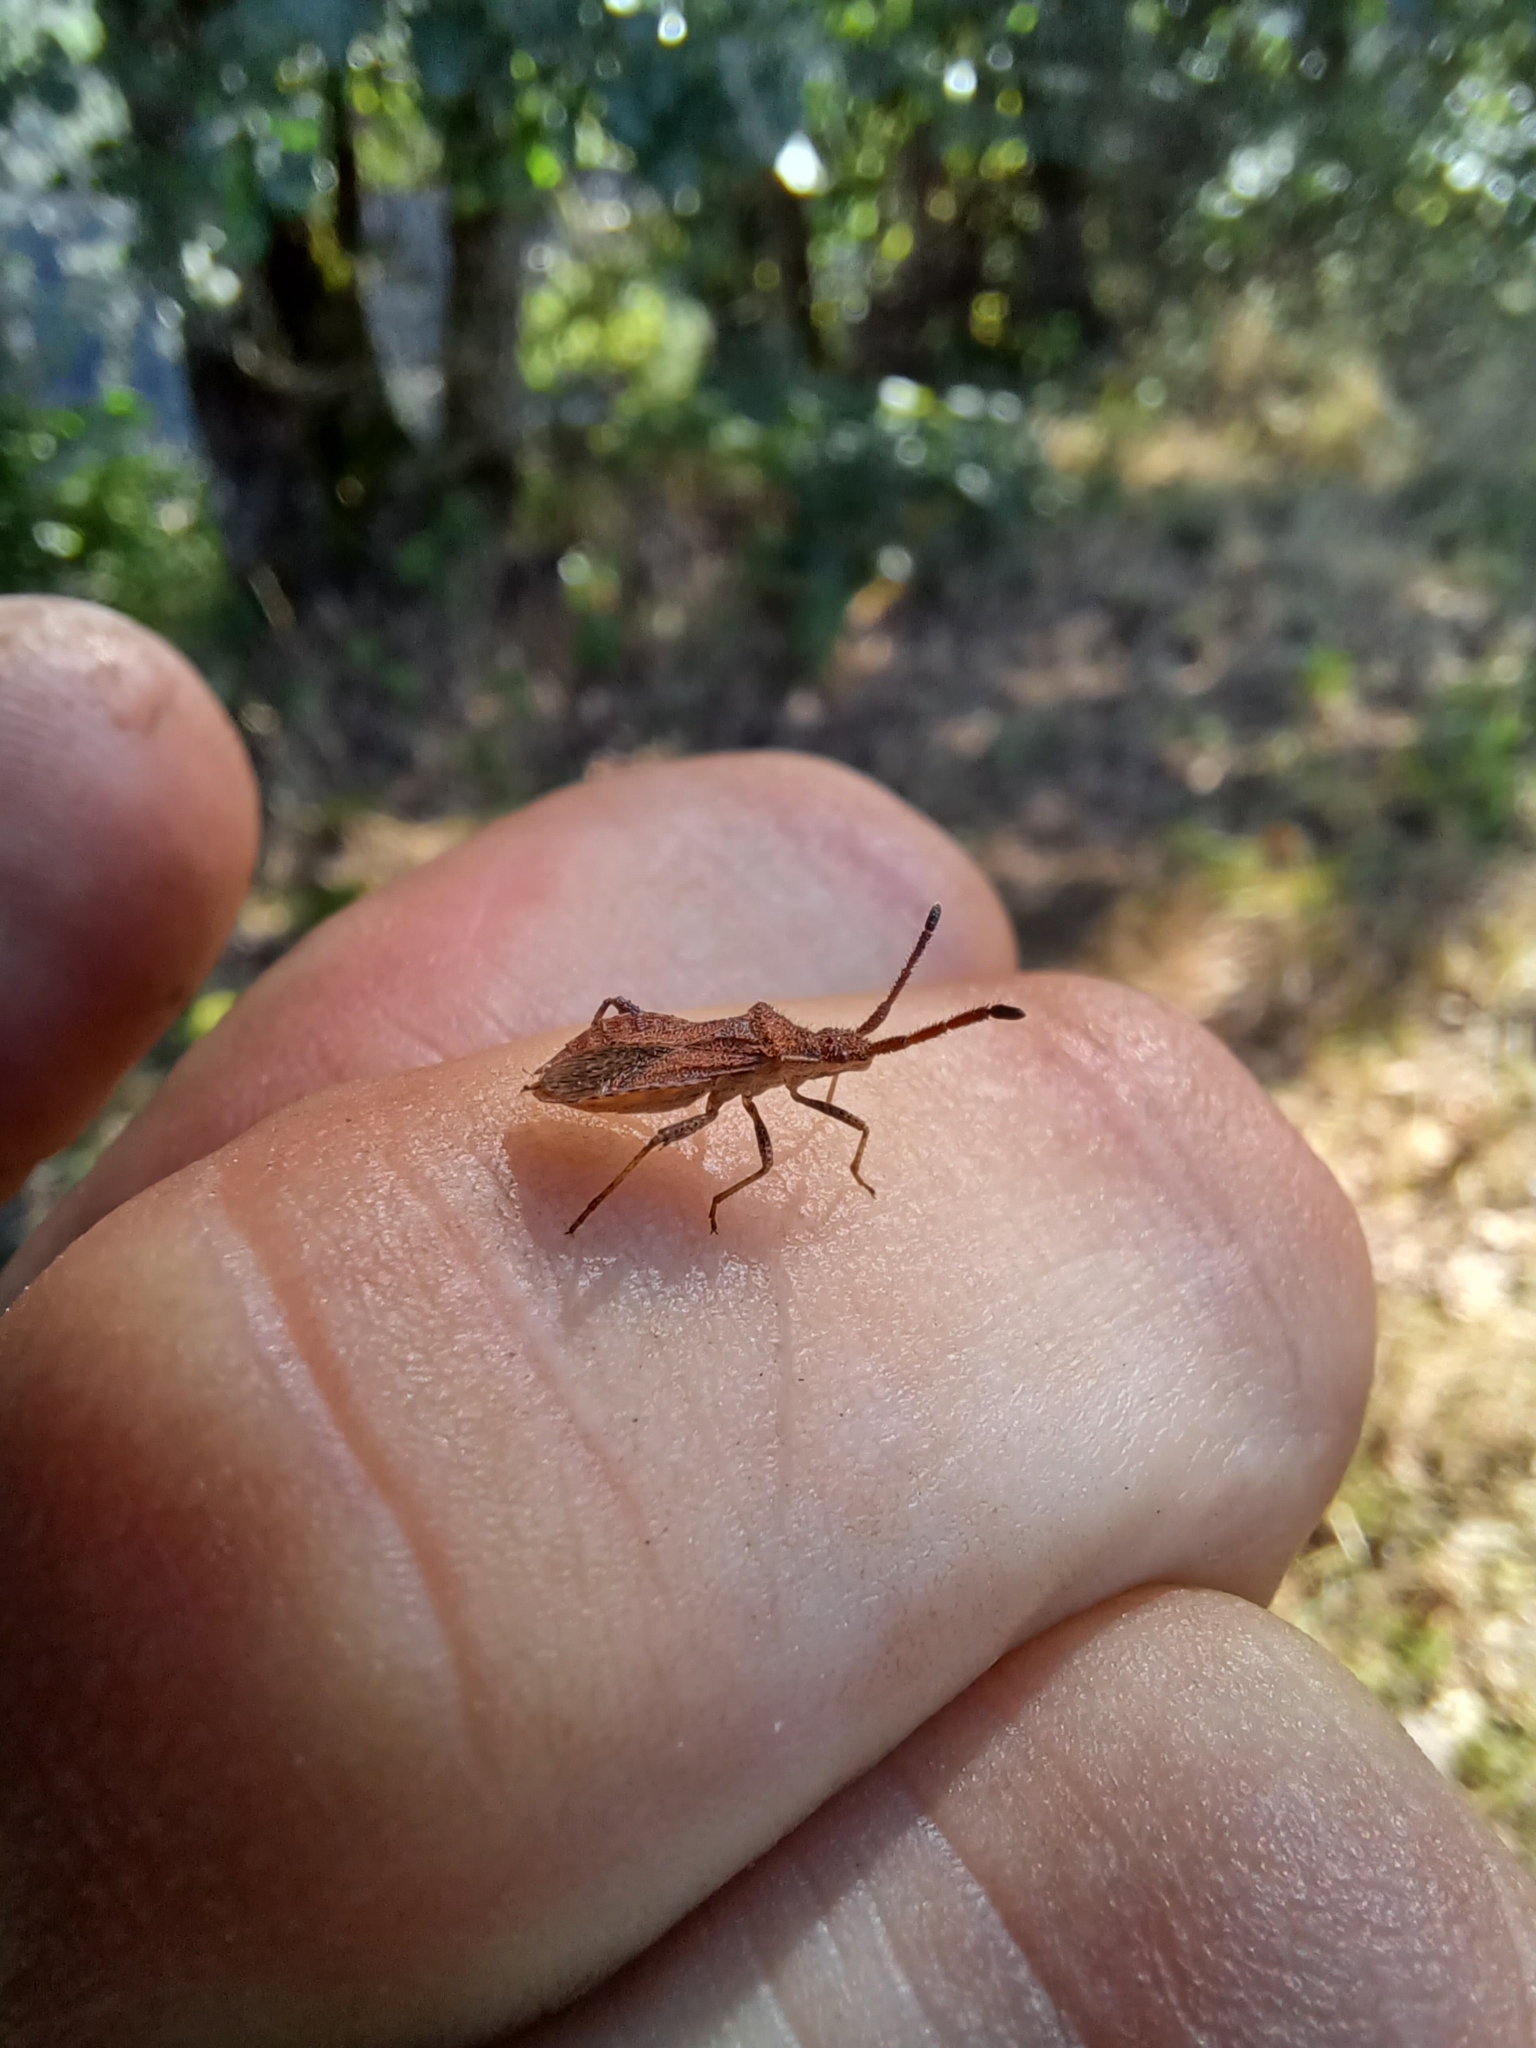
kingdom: Animalia
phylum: Arthropoda
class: Insecta
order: Hemiptera
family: Coreidae
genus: Coriomeris
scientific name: Coriomeris denticulatus
